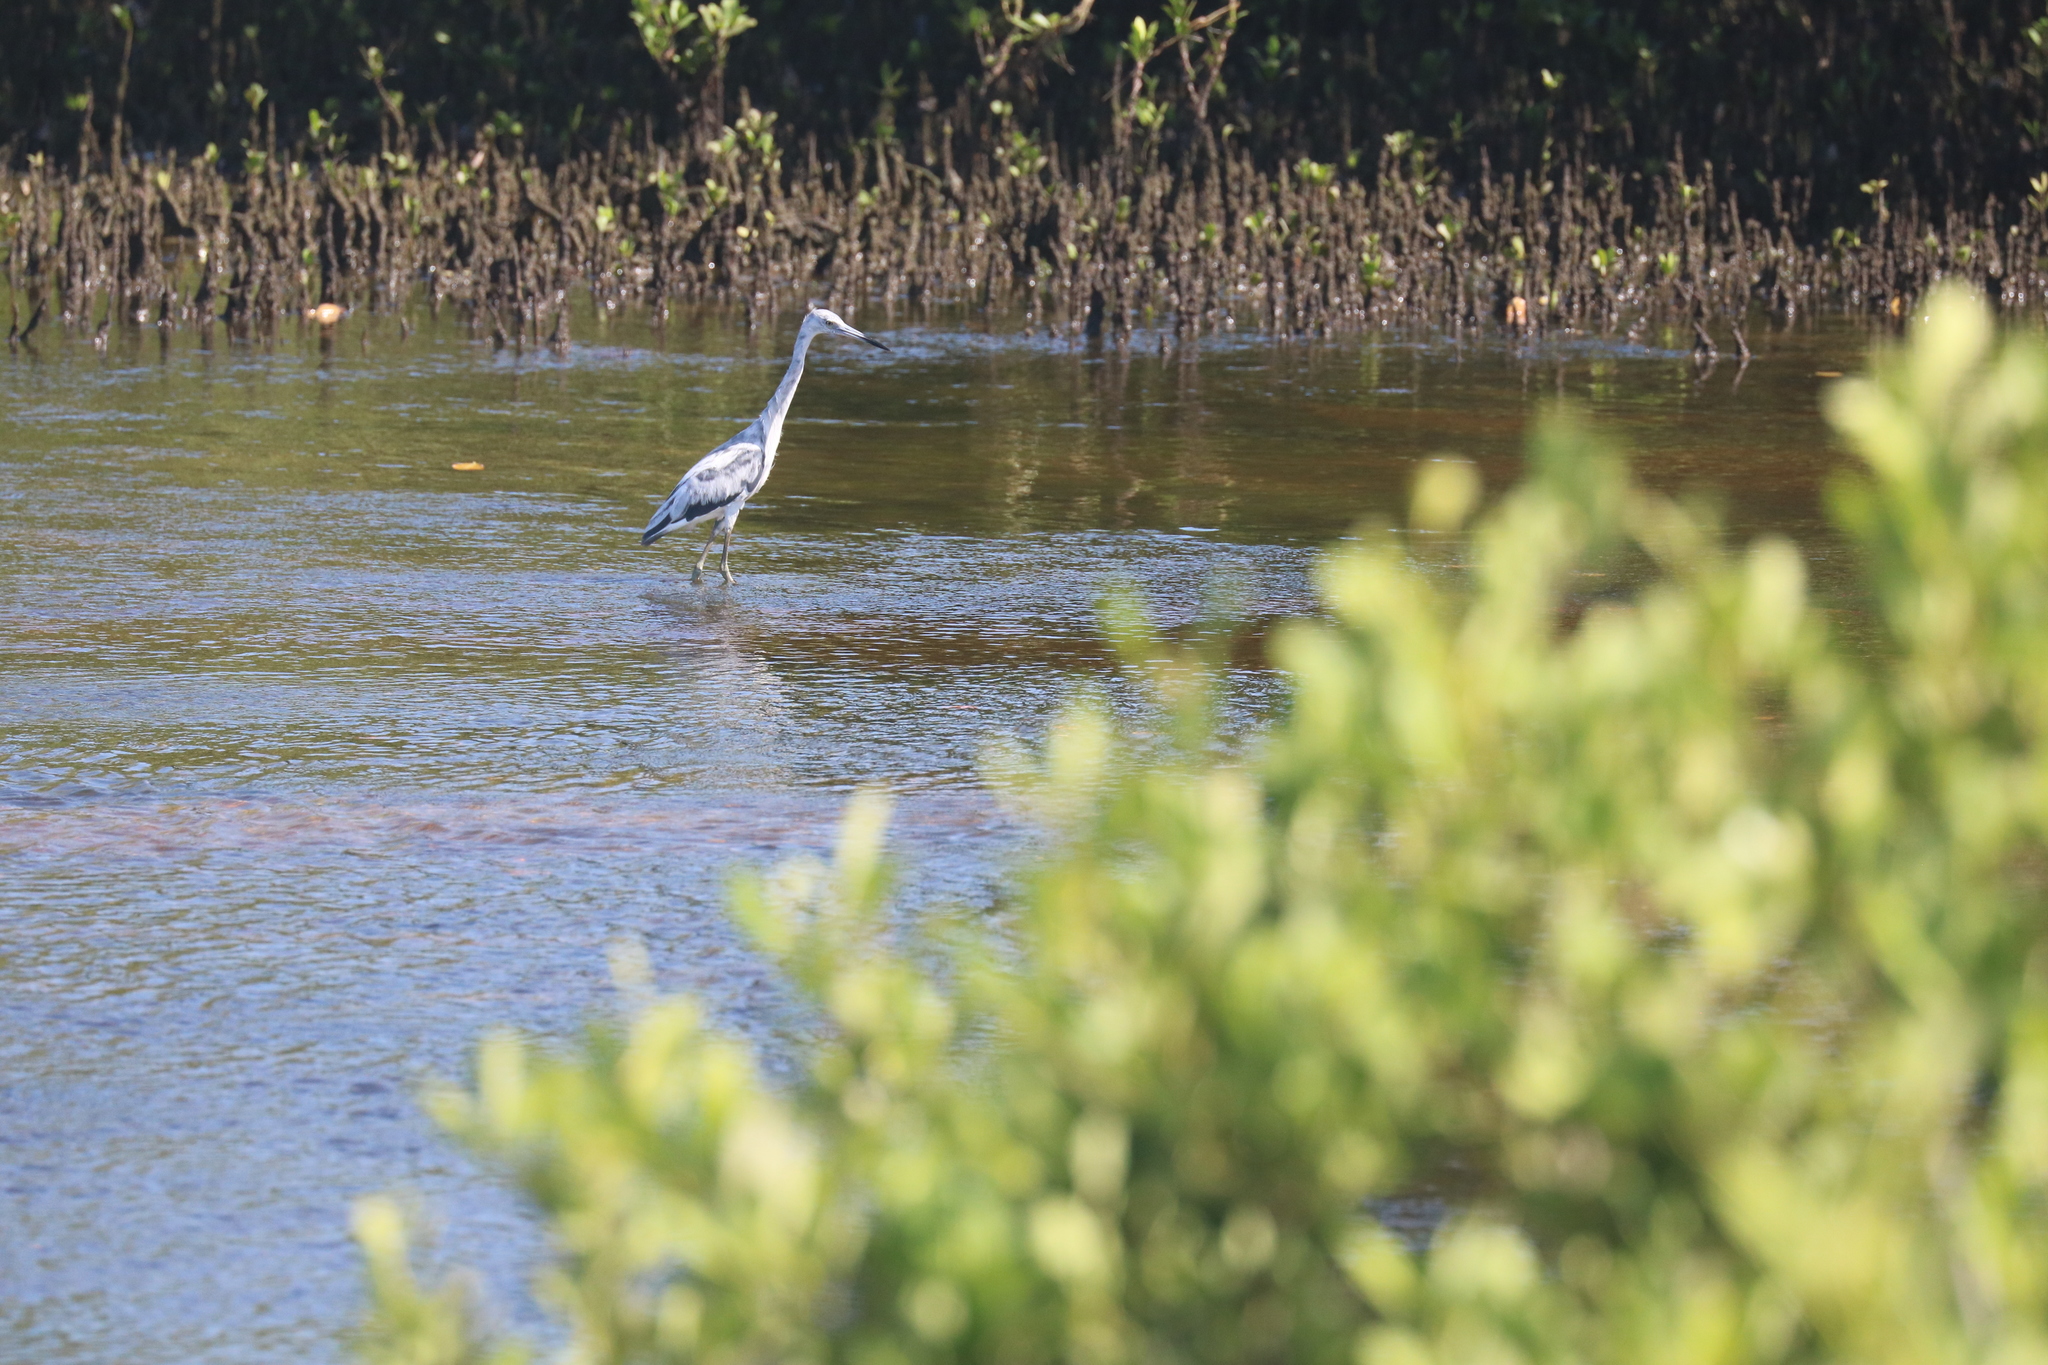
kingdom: Animalia
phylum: Chordata
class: Aves
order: Pelecaniformes
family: Ardeidae
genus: Egretta
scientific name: Egretta caerulea
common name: Little blue heron
